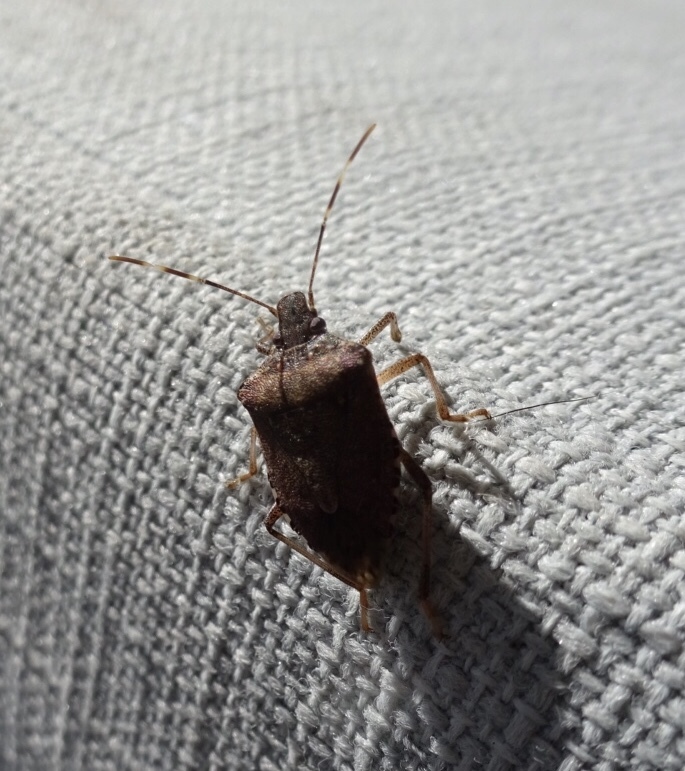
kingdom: Animalia
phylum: Arthropoda
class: Insecta
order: Hemiptera
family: Pentatomidae
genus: Halyomorpha
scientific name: Halyomorpha halys
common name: Brown marmorated stink bug
